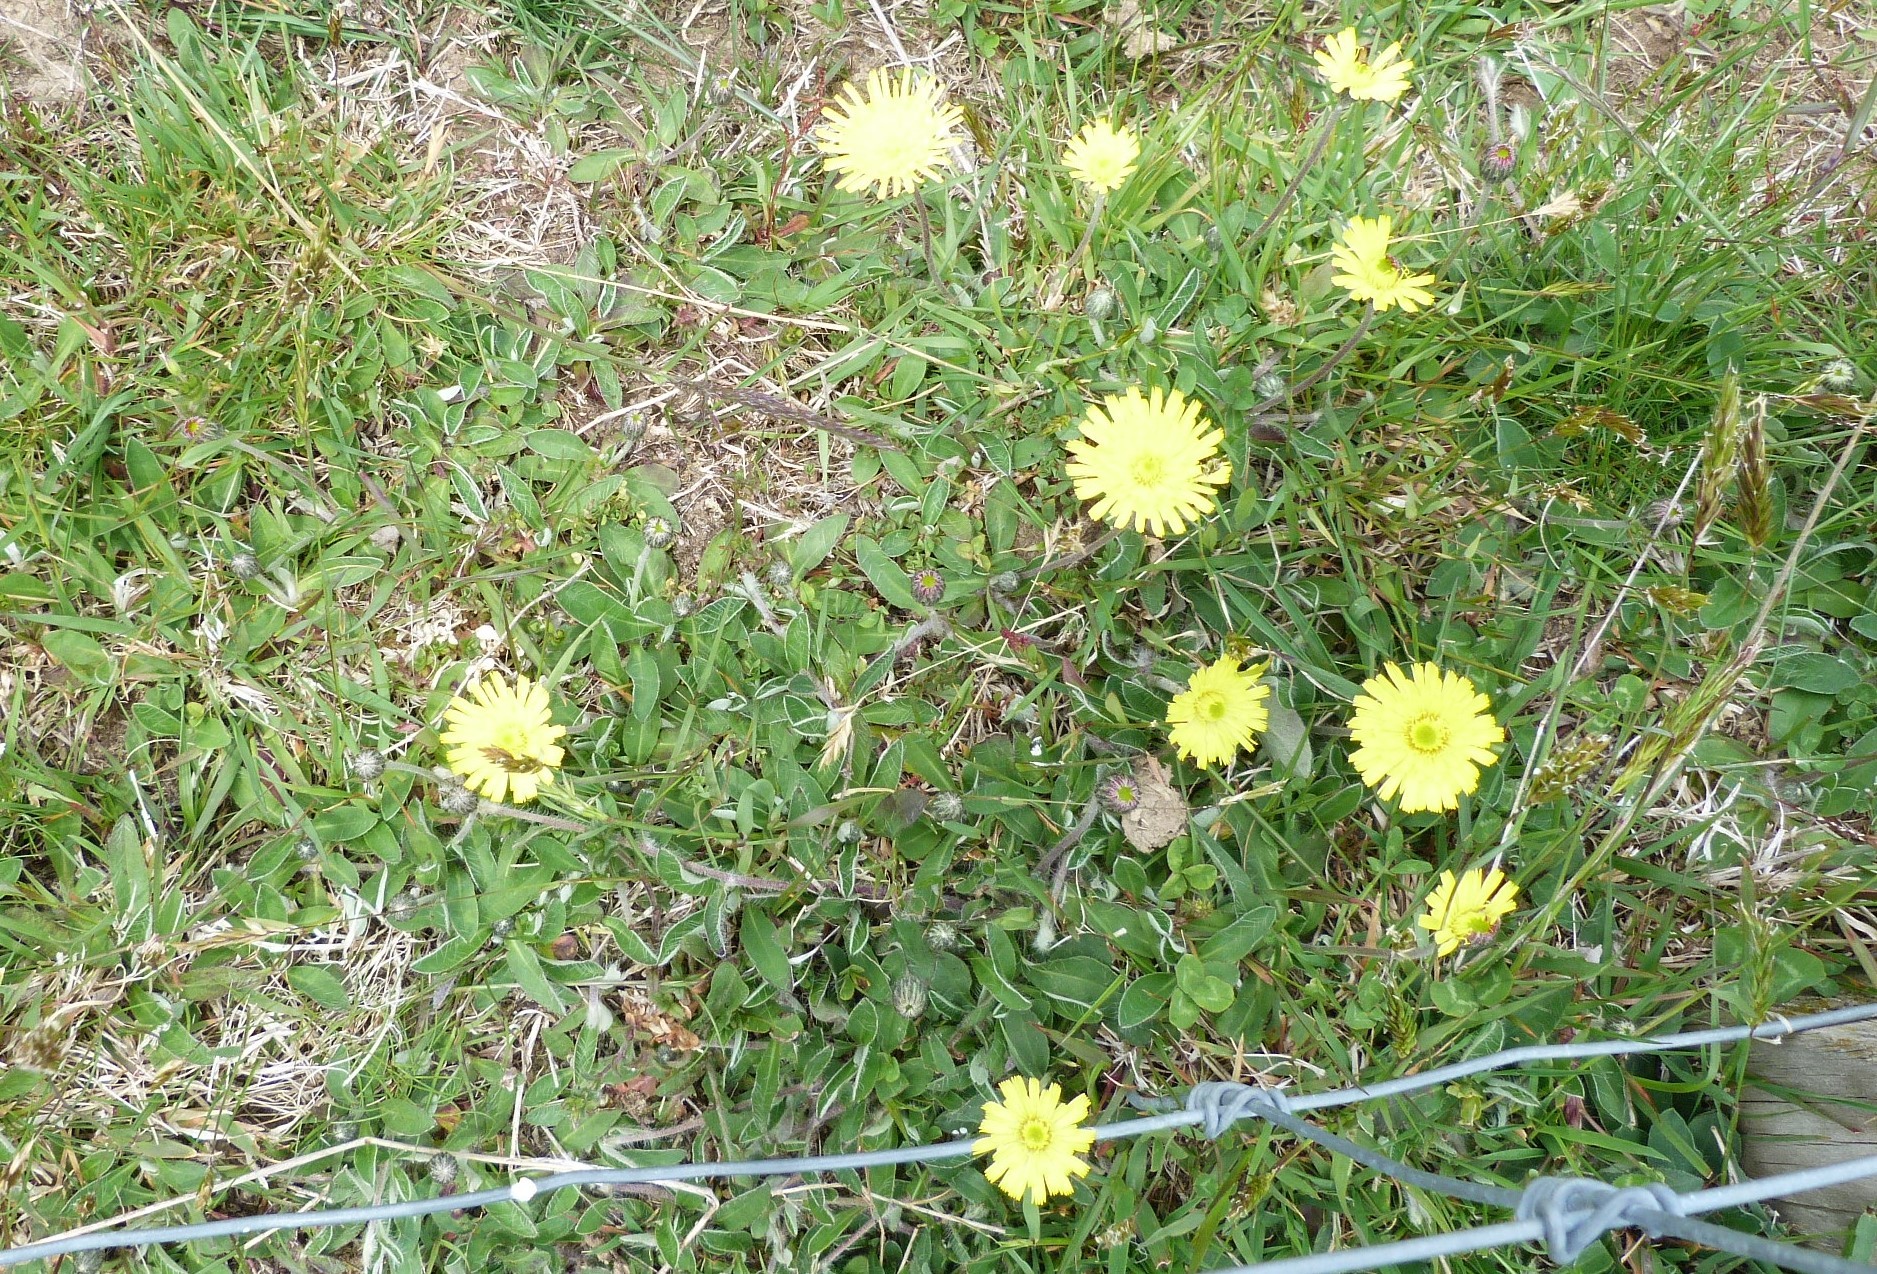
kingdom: Plantae
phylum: Tracheophyta
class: Magnoliopsida
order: Asterales
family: Asteraceae
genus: Pilosella
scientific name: Pilosella officinarum
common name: Mouse-ear hawkweed
